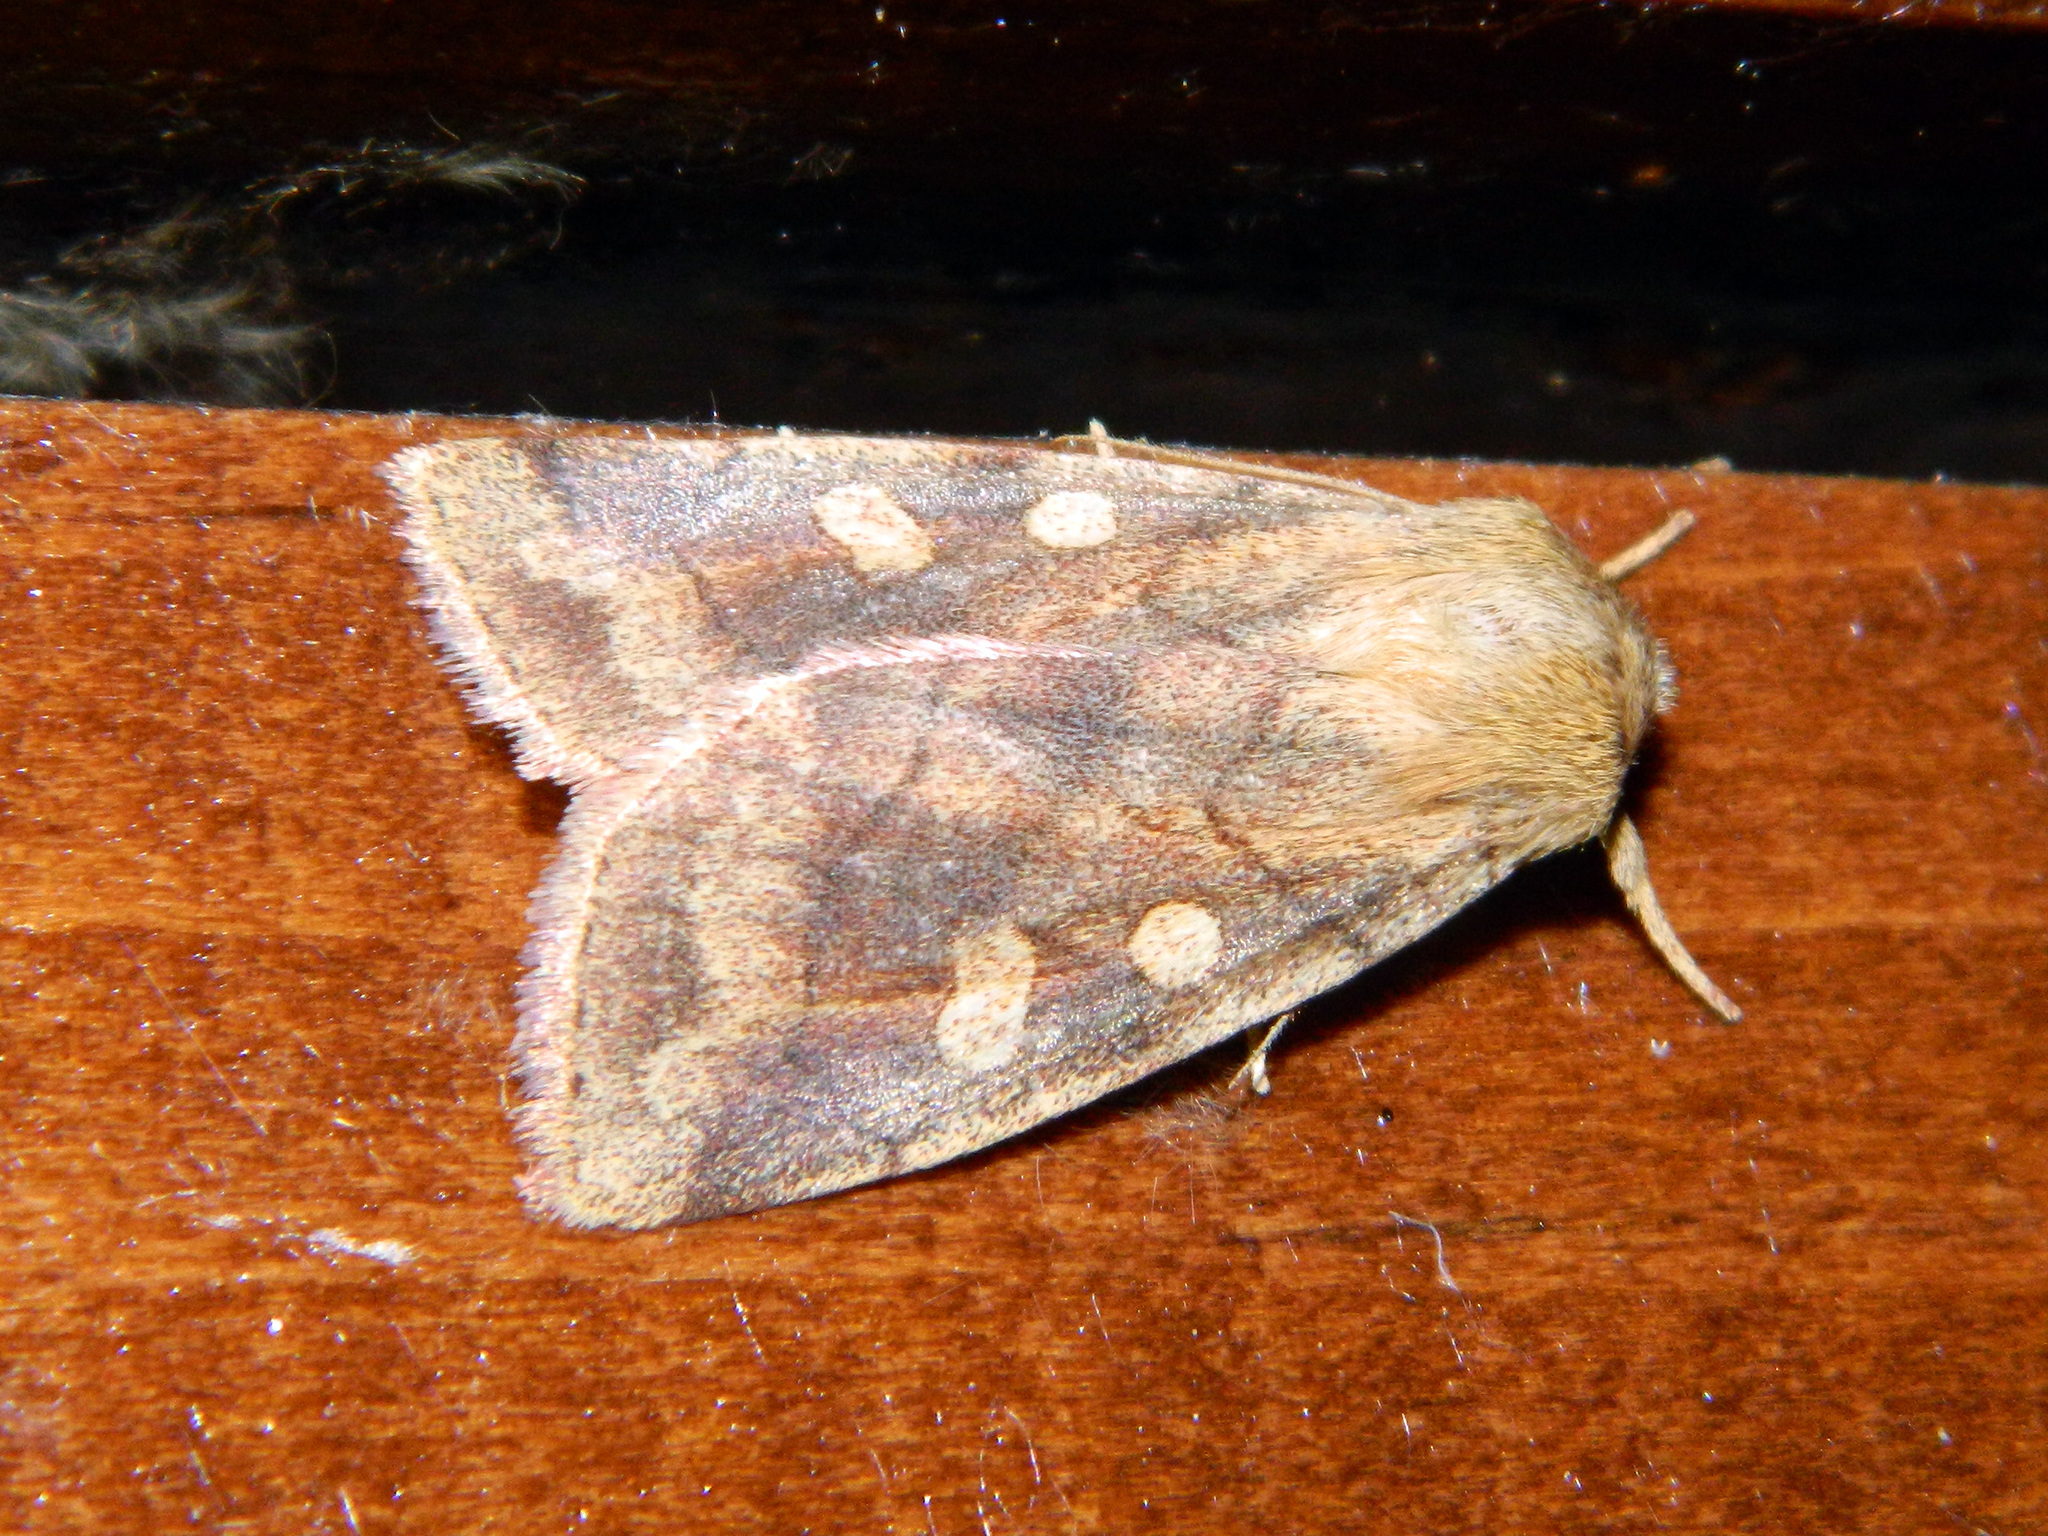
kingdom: Animalia
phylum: Arthropoda
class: Insecta
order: Lepidoptera
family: Noctuidae
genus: Enargia
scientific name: Enargia decolor
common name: Aspen twoleaf tier moth
